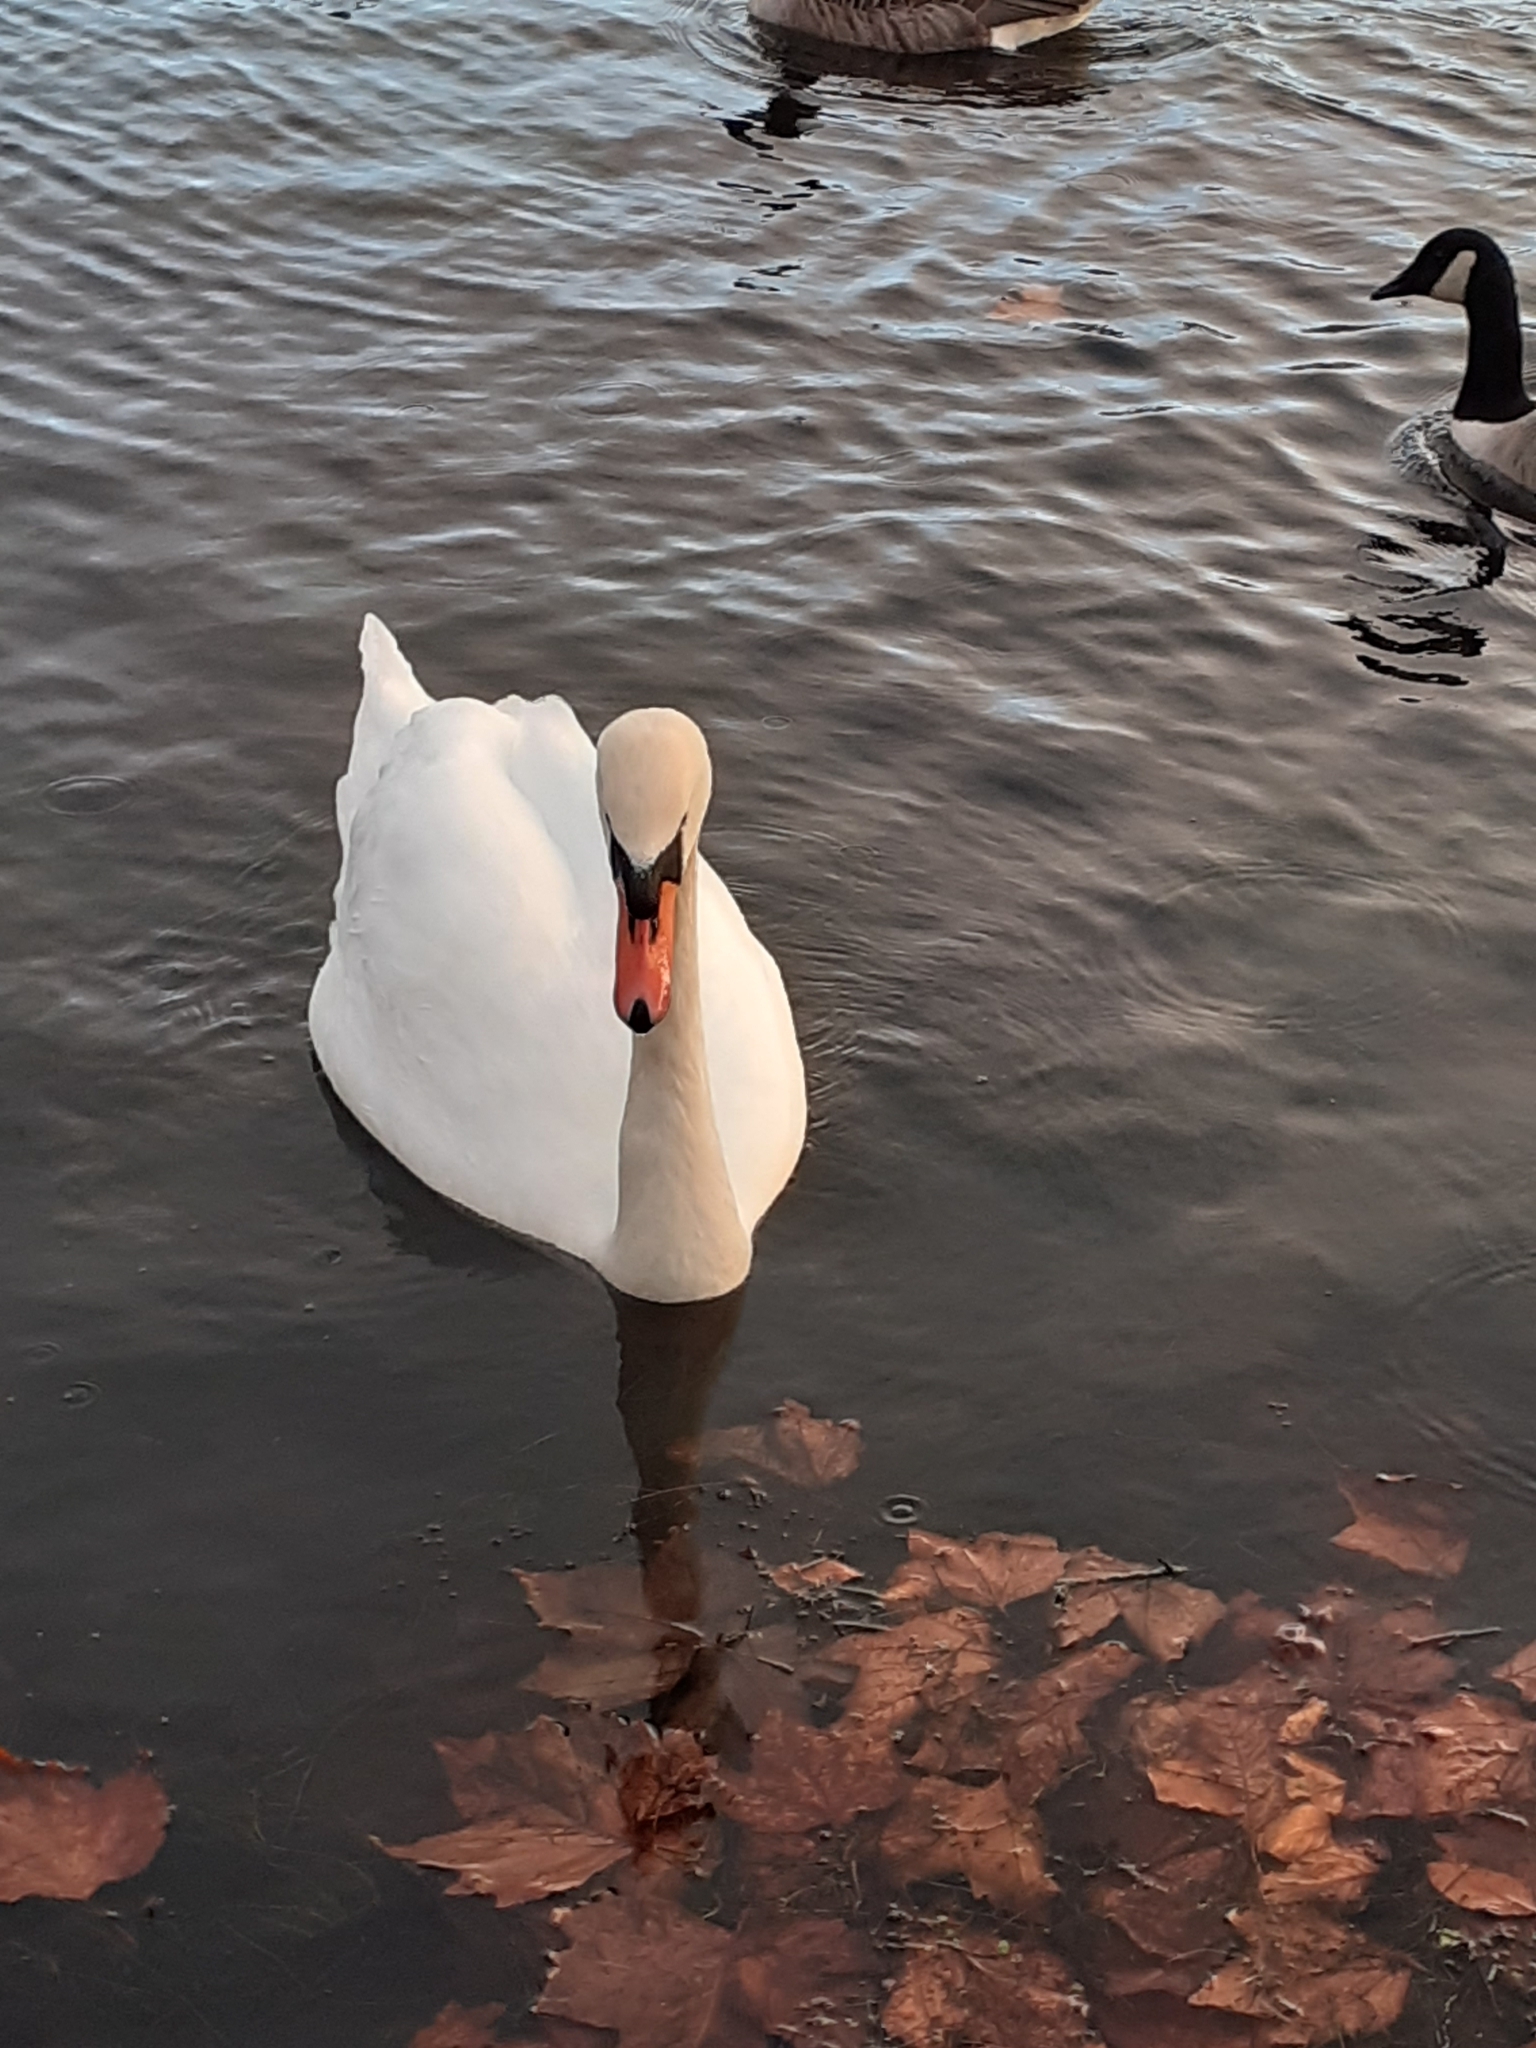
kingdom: Animalia
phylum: Chordata
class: Aves
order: Anseriformes
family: Anatidae
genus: Cygnus
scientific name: Cygnus olor
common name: Mute swan
